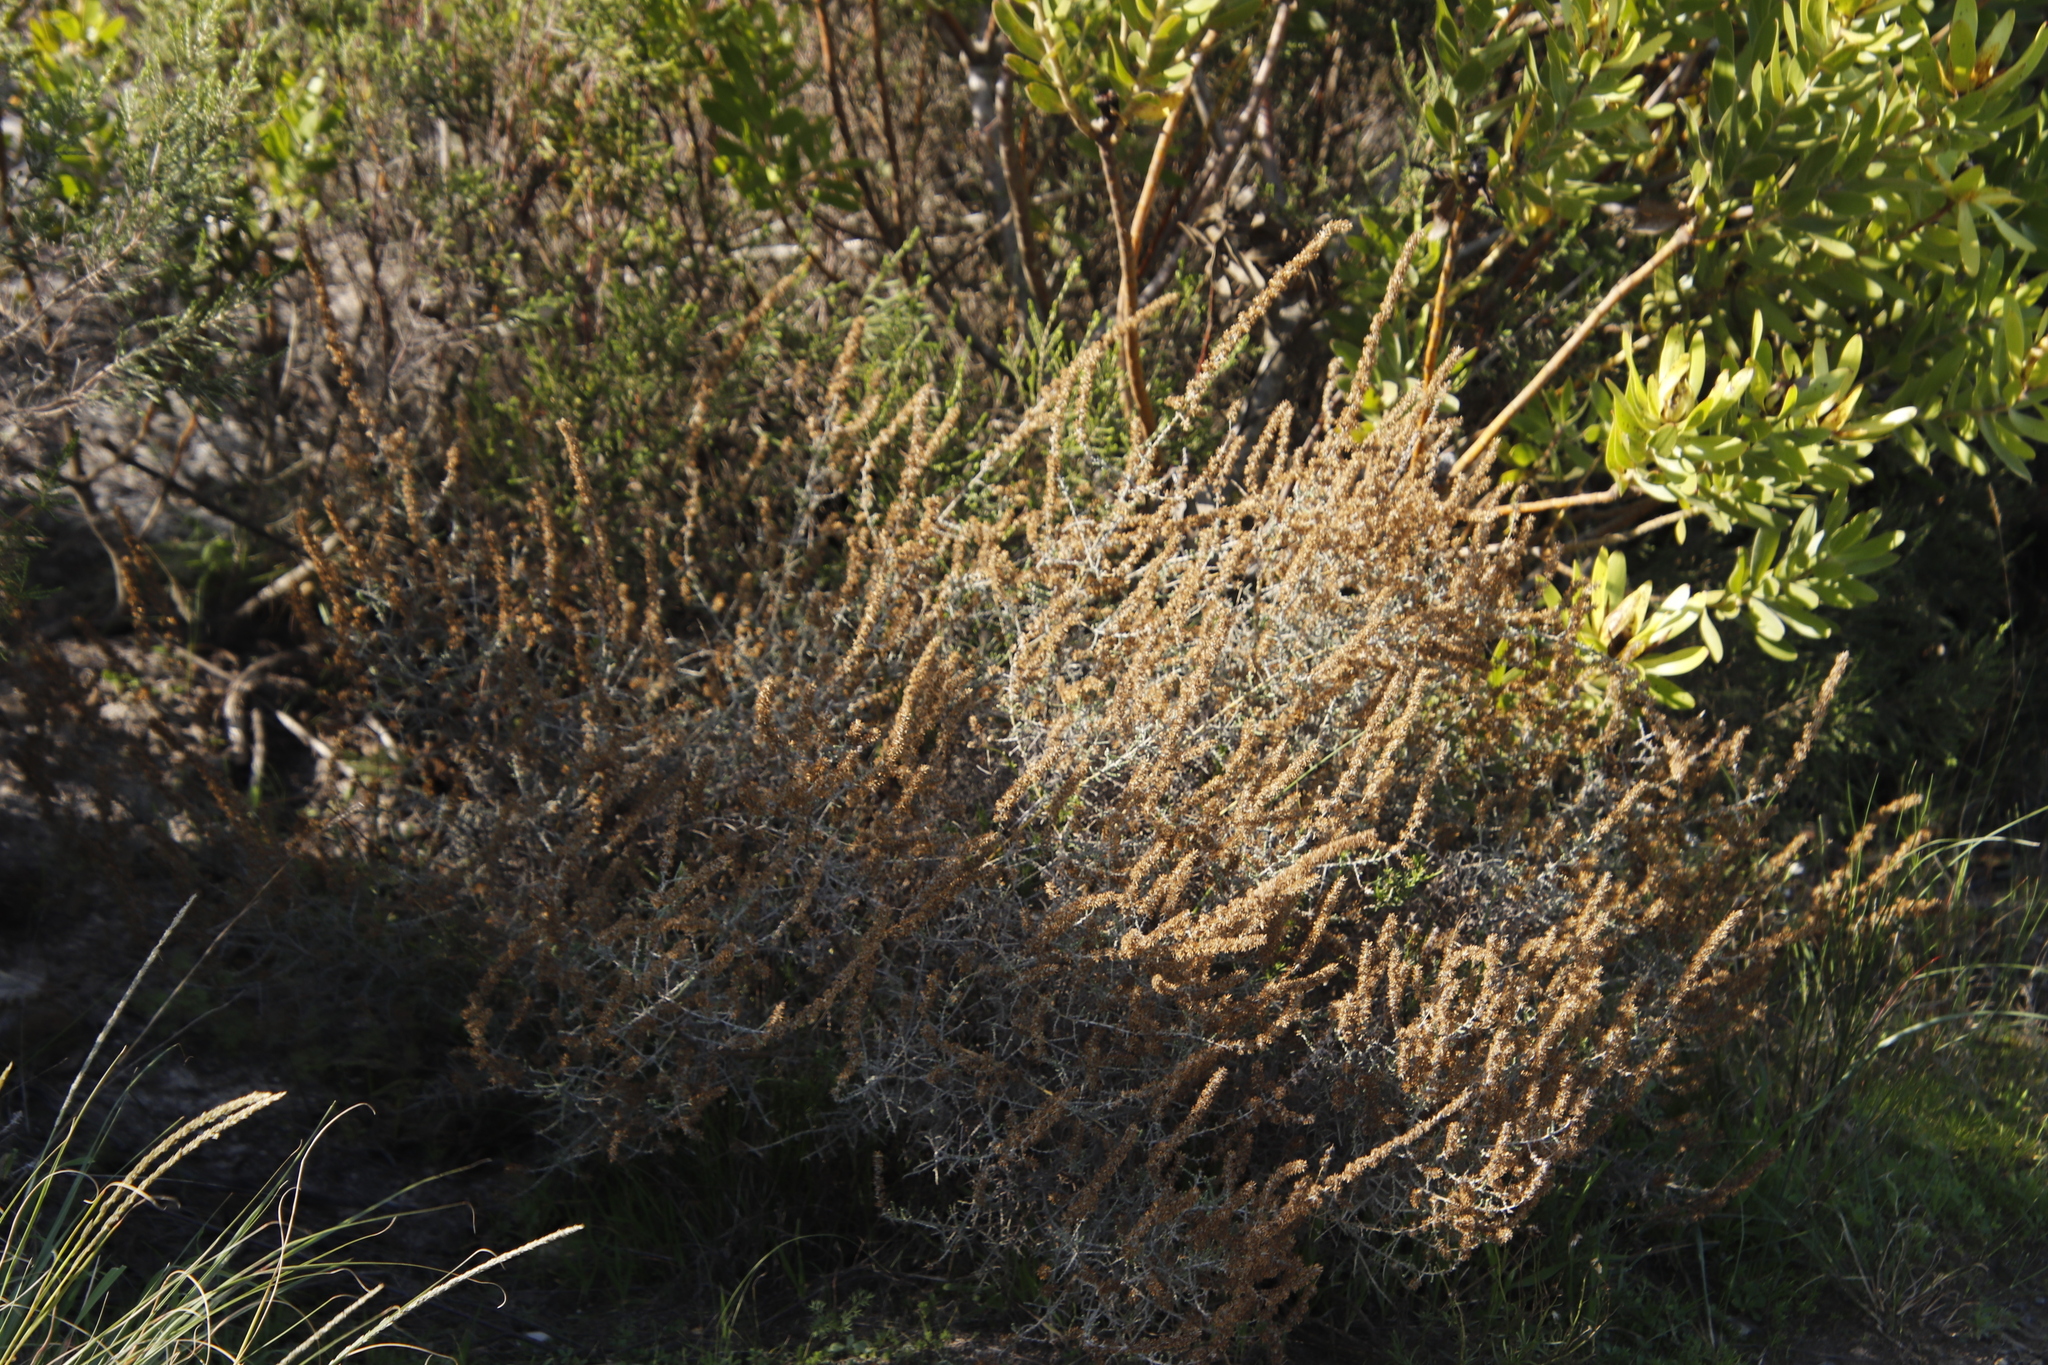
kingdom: Plantae
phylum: Tracheophyta
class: Magnoliopsida
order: Asterales
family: Asteraceae
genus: Seriphium
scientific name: Seriphium plumosum
